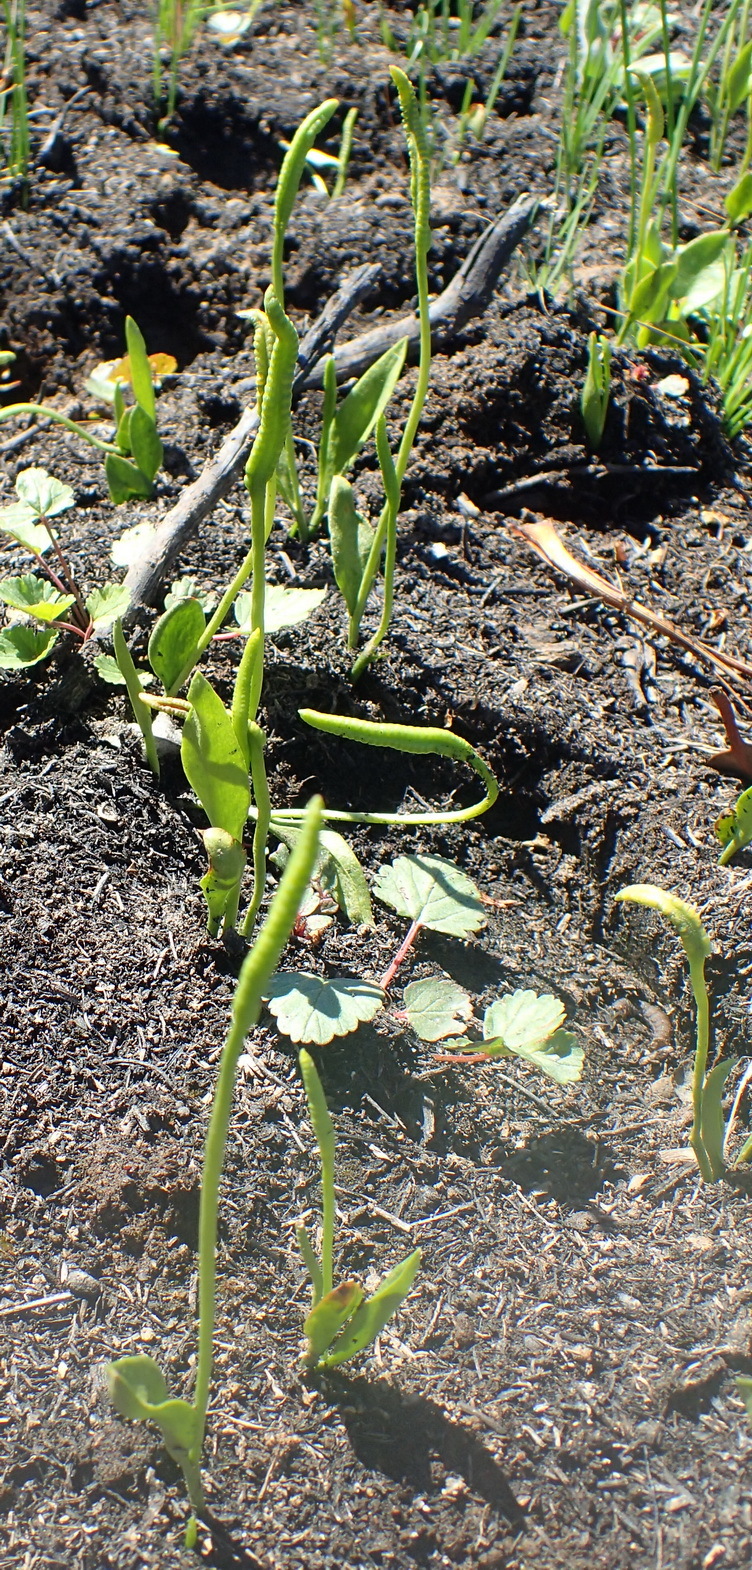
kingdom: Plantae
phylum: Tracheophyta
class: Polypodiopsida
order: Ophioglossales
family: Ophioglossaceae
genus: Ophioglossum
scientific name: Ophioglossum polyphyllum
